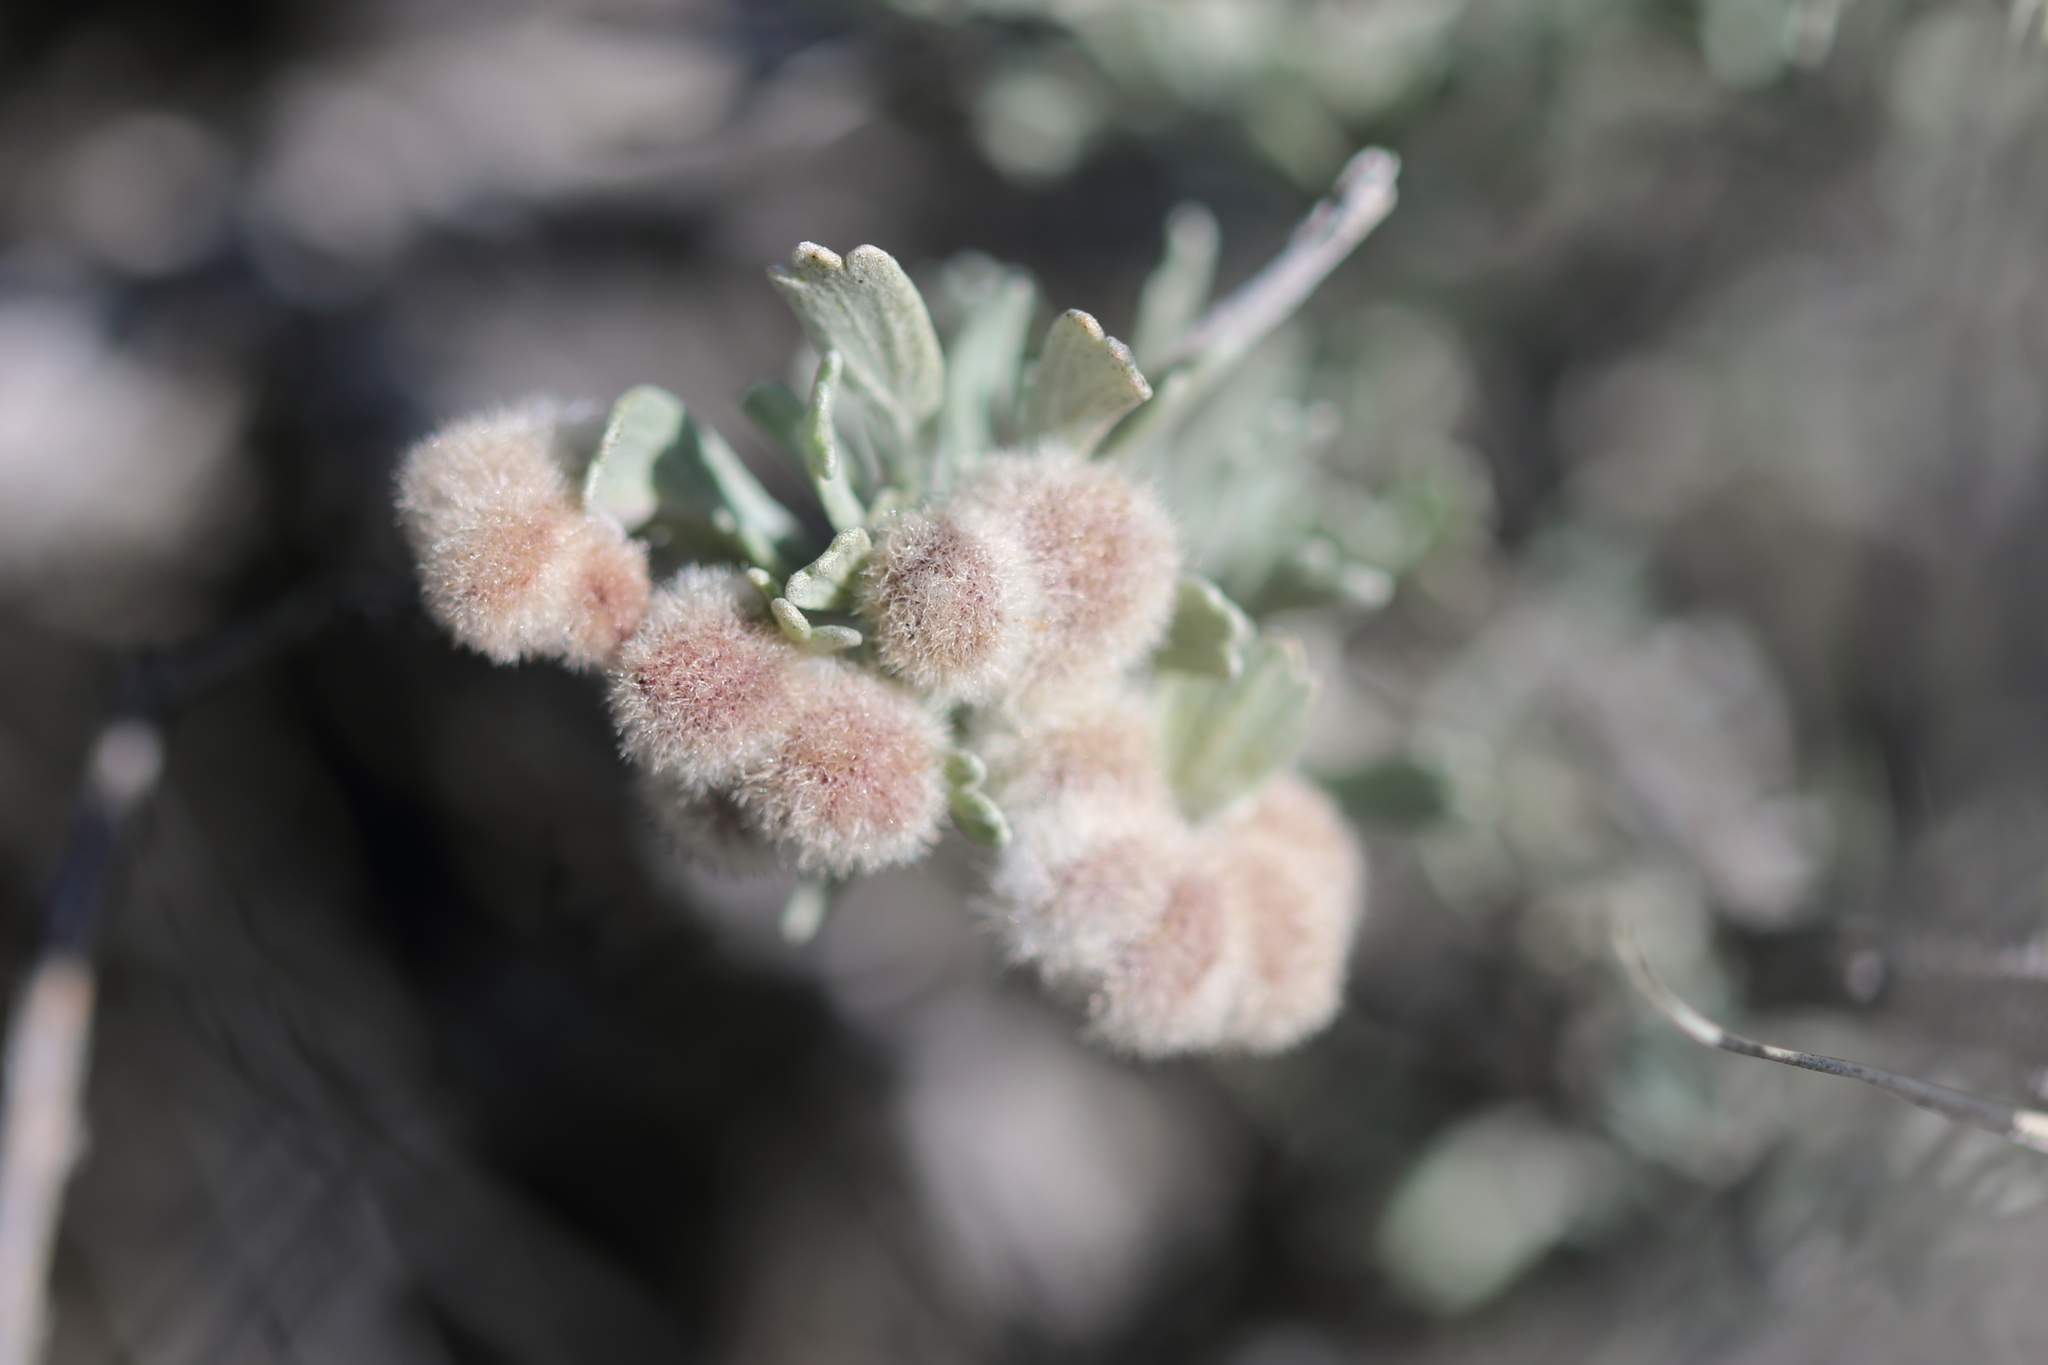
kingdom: Animalia
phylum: Arthropoda
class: Insecta
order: Diptera
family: Cecidomyiidae
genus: Rhopalomyia
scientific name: Rhopalomyia hirtipomum
